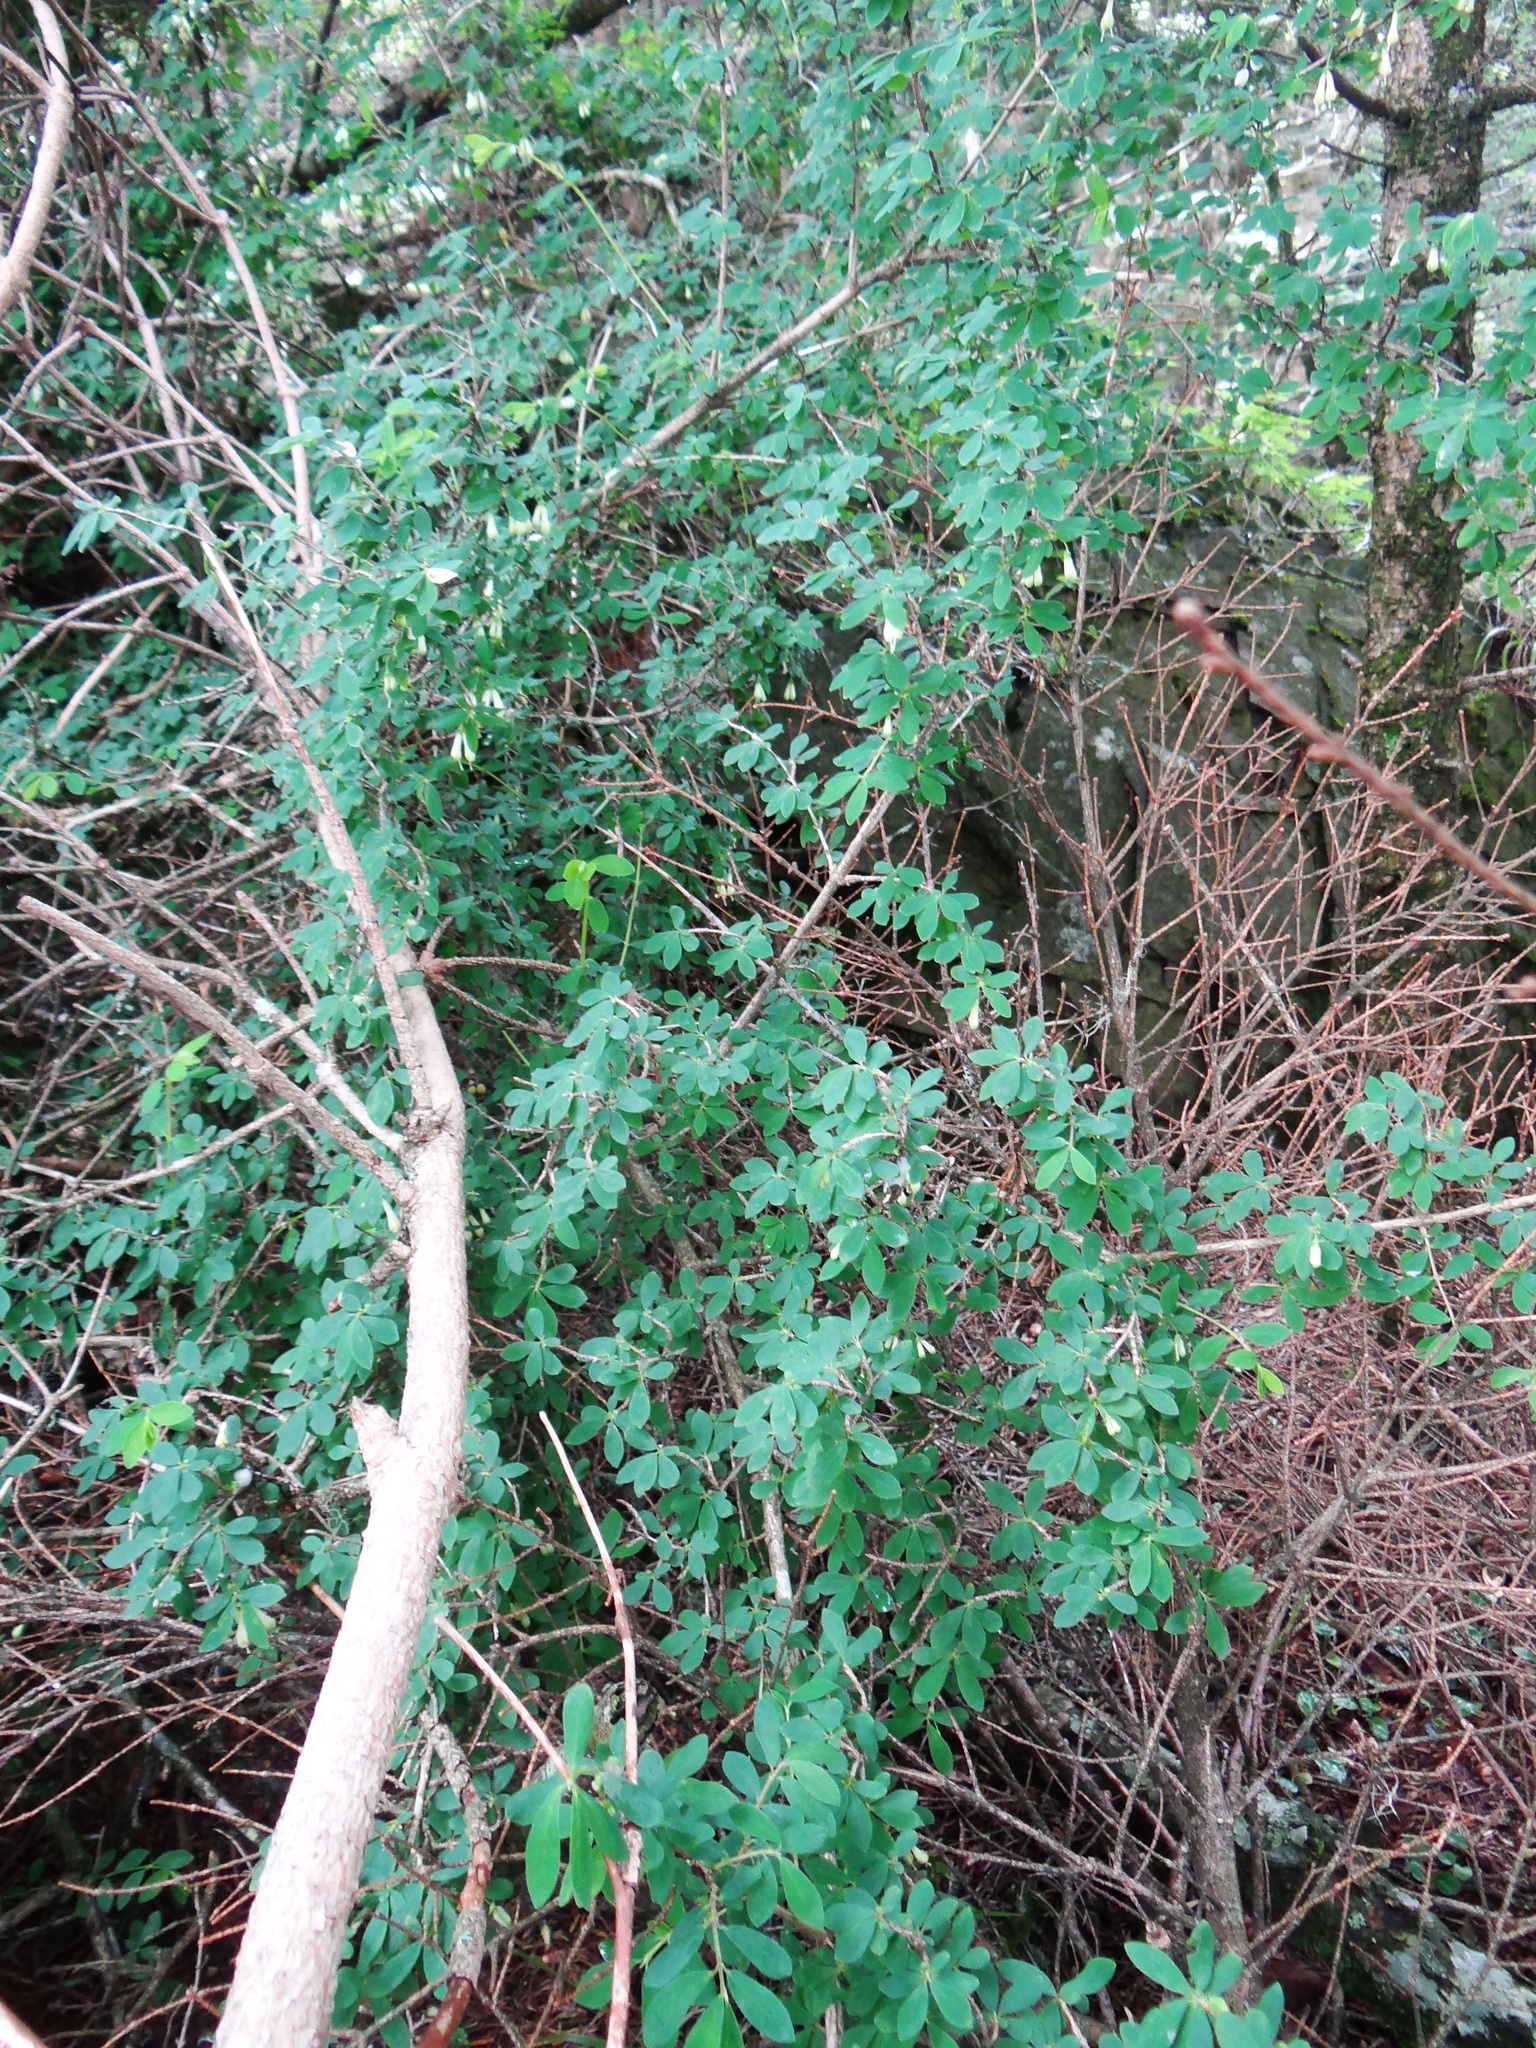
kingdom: Plantae
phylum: Tracheophyta
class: Magnoliopsida
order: Dipsacales
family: Caprifoliaceae
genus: Lonicera
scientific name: Lonicera kawakamii
